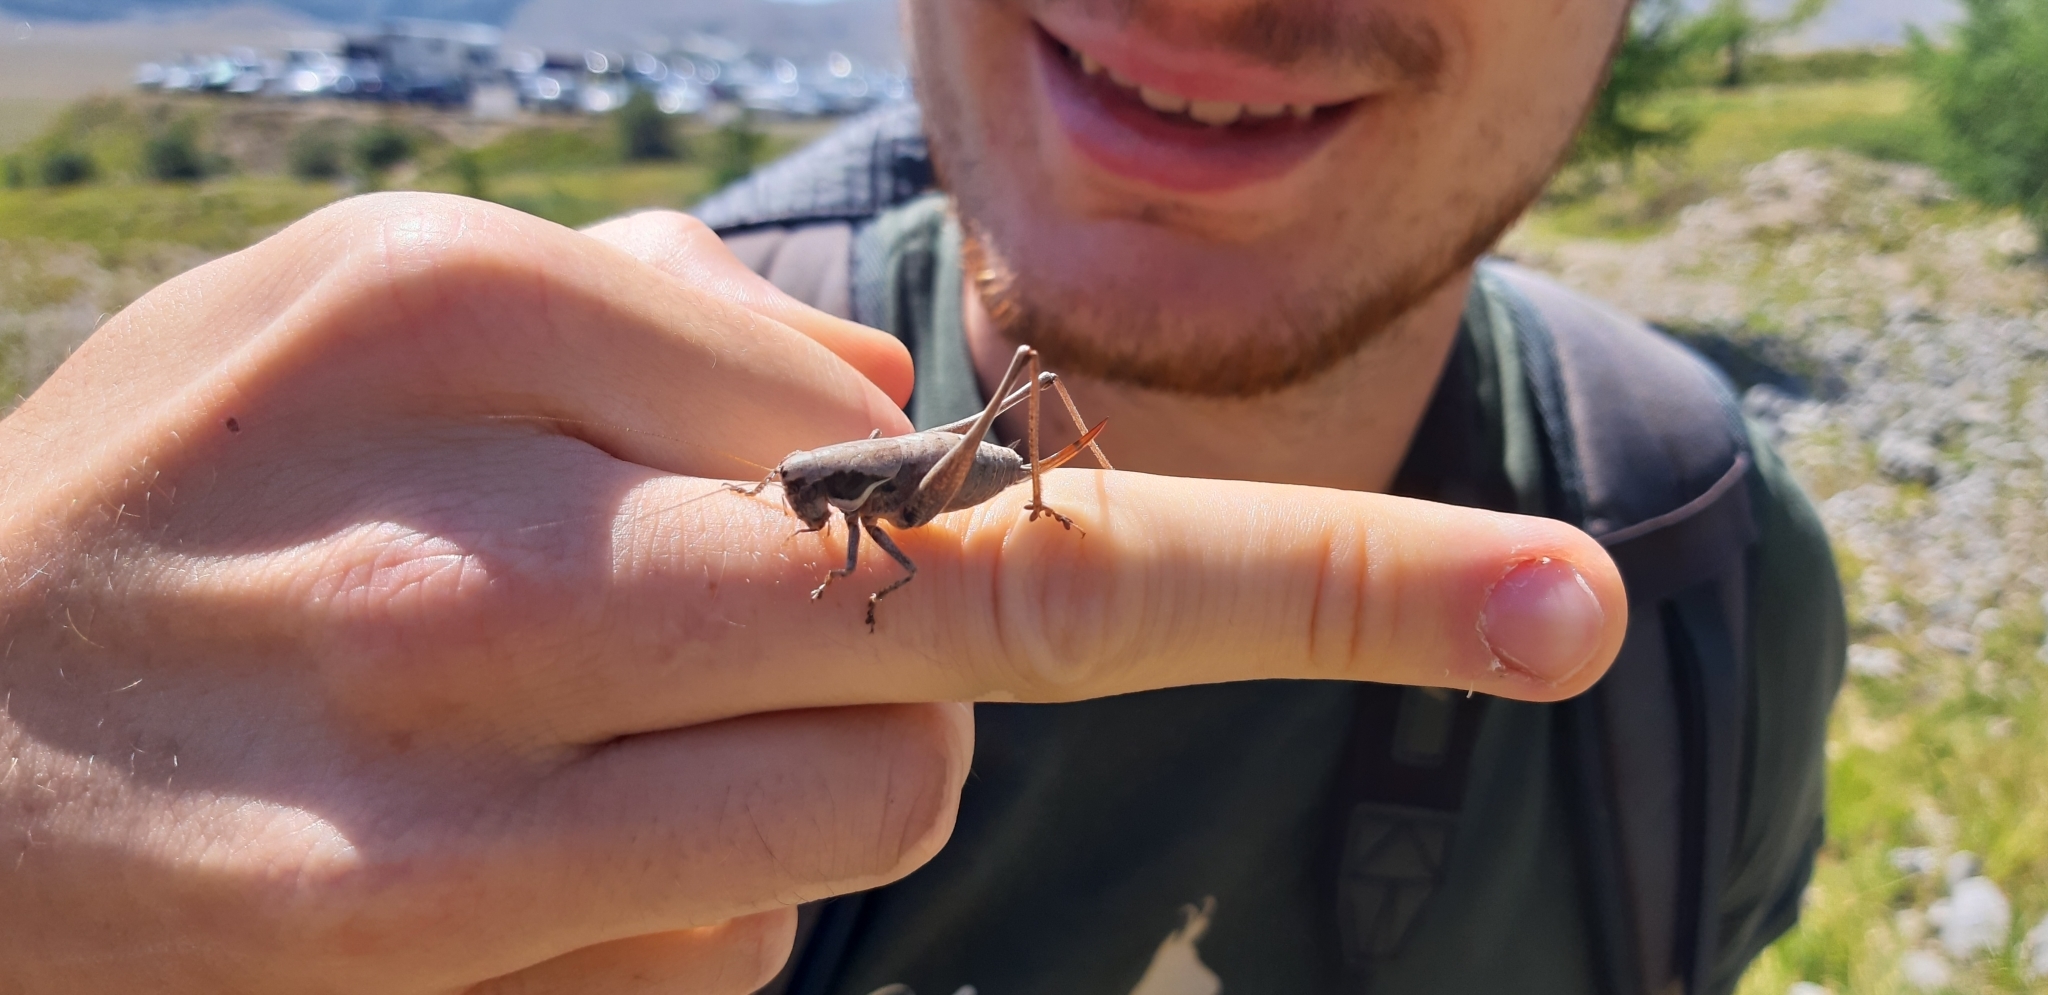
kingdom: Animalia
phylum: Arthropoda
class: Insecta
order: Orthoptera
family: Tettigoniidae
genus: Pholidoptera
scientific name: Pholidoptera fallax
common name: Fischer's bush-cricket
